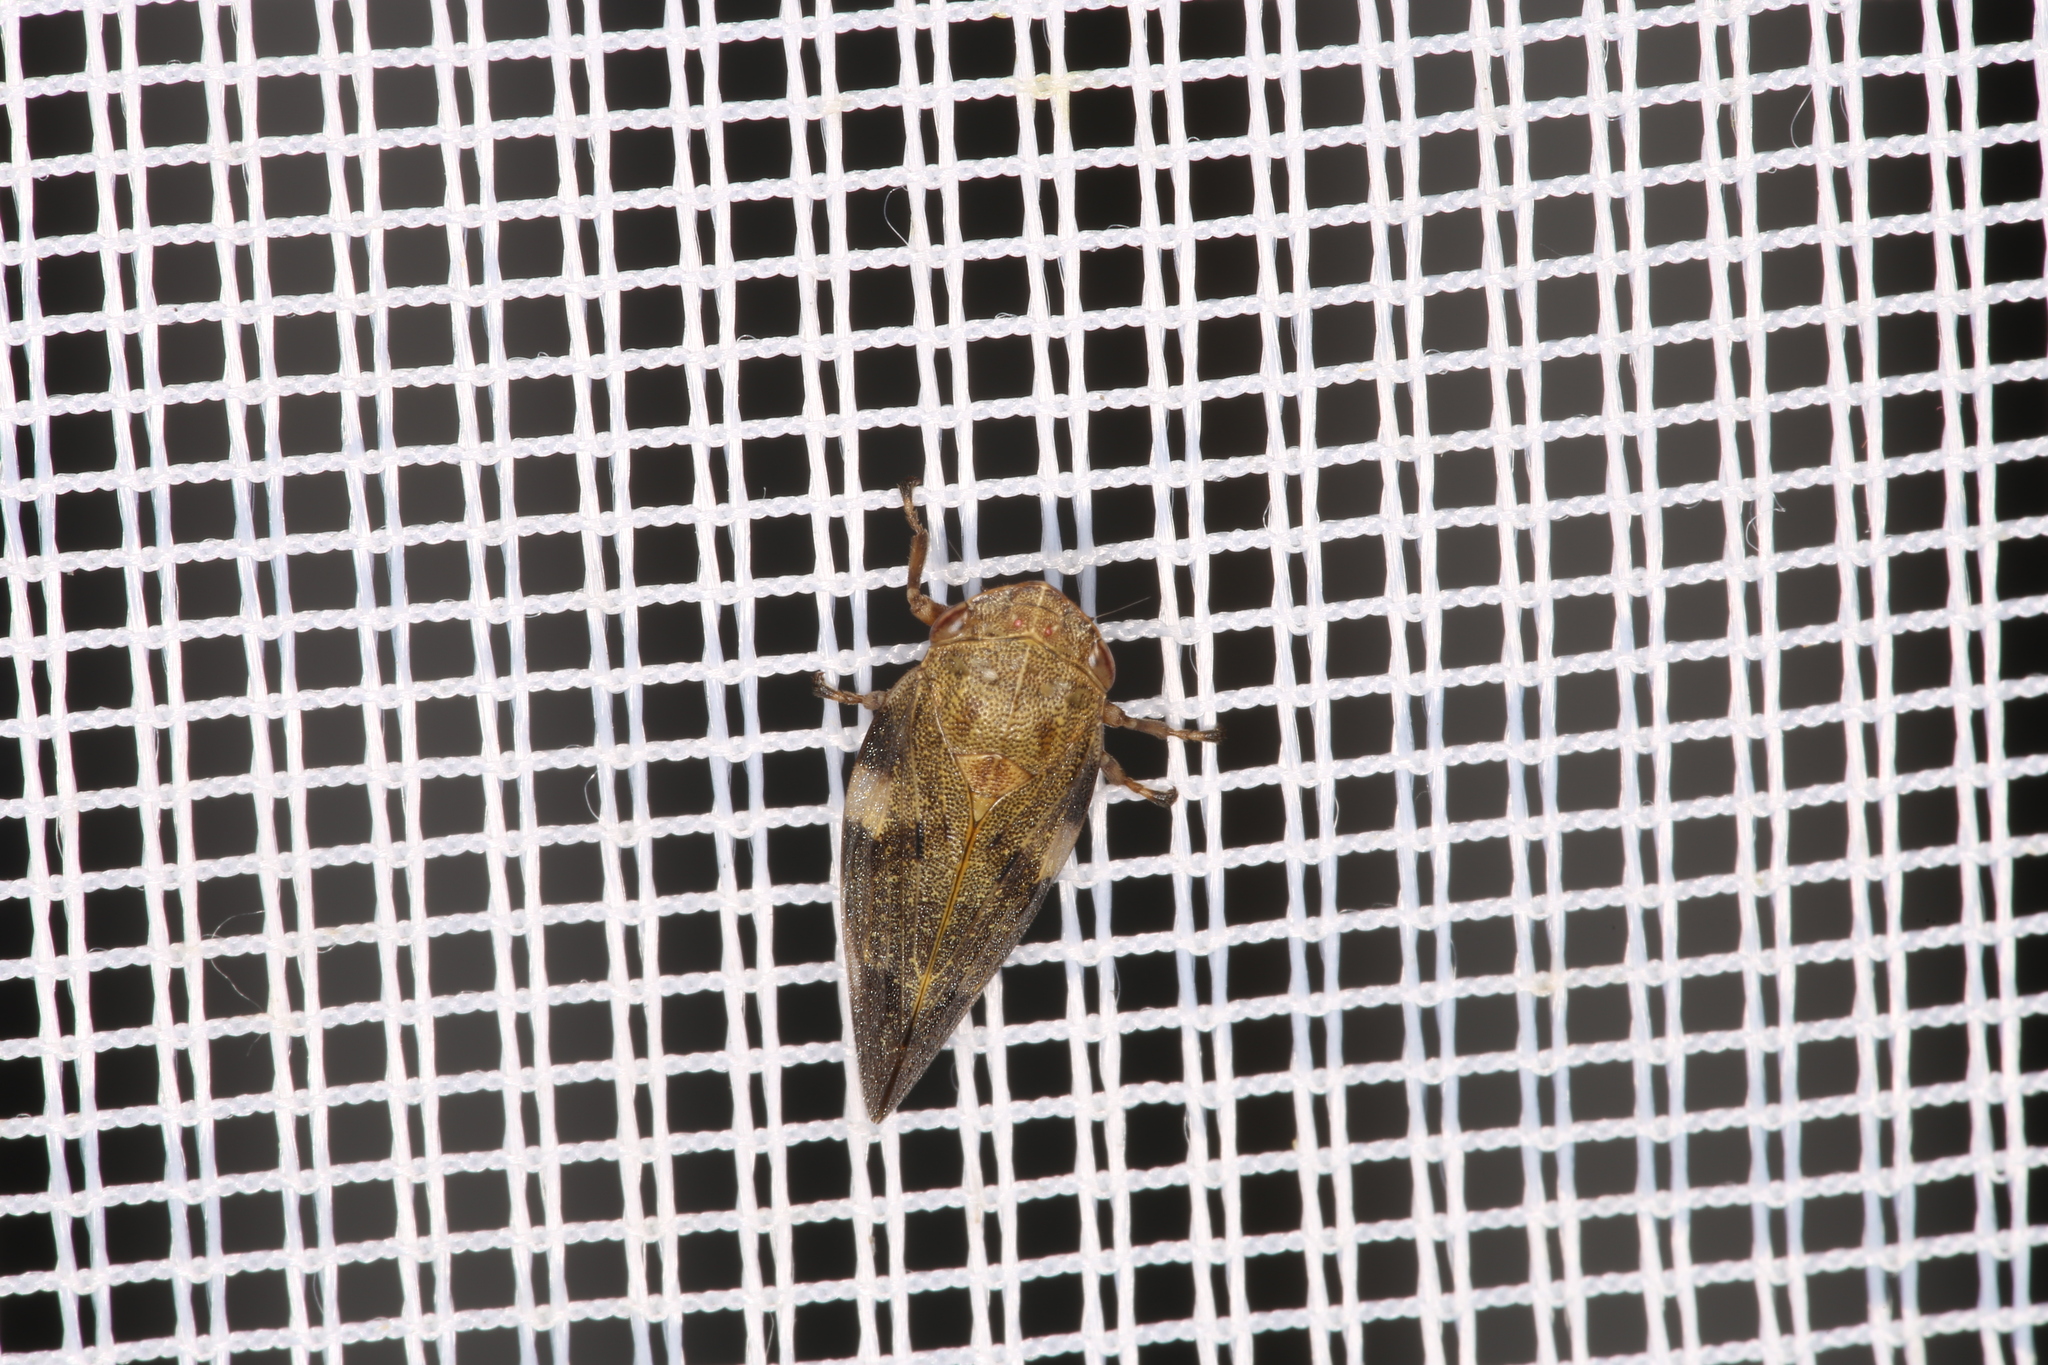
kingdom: Animalia
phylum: Arthropoda
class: Insecta
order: Hemiptera
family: Aphrophoridae
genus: Aphrophora
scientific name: Aphrophora alni
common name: European alder spittlebug
